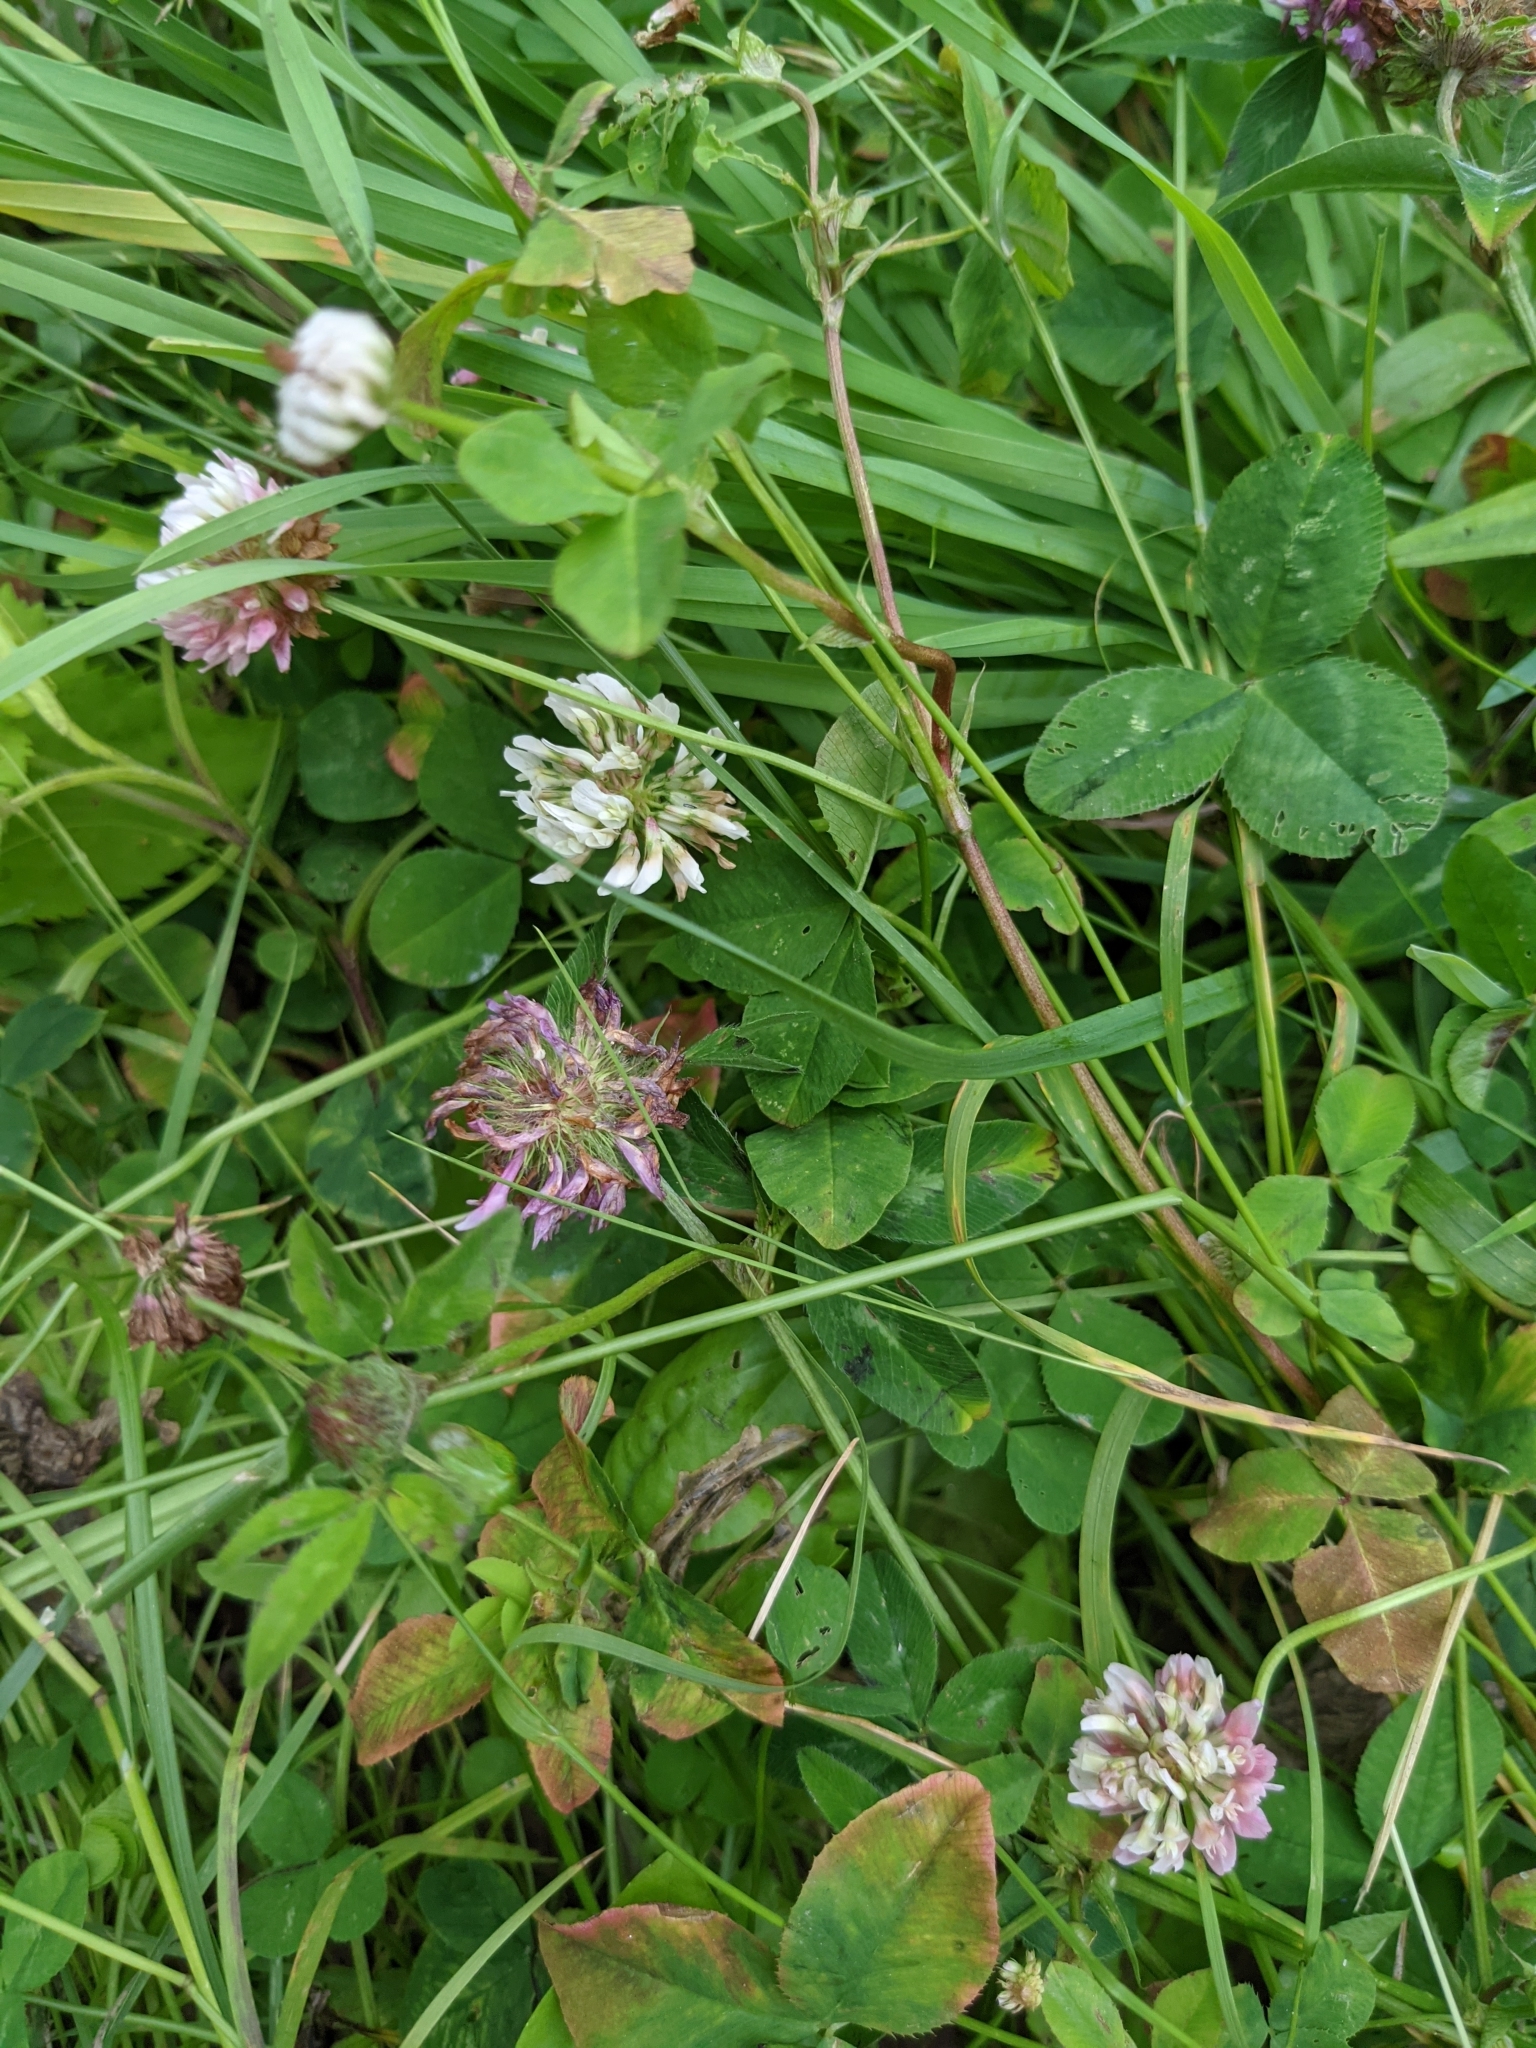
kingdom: Plantae
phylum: Tracheophyta
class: Magnoliopsida
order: Fabales
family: Fabaceae
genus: Trifolium
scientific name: Trifolium repens
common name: White clover
